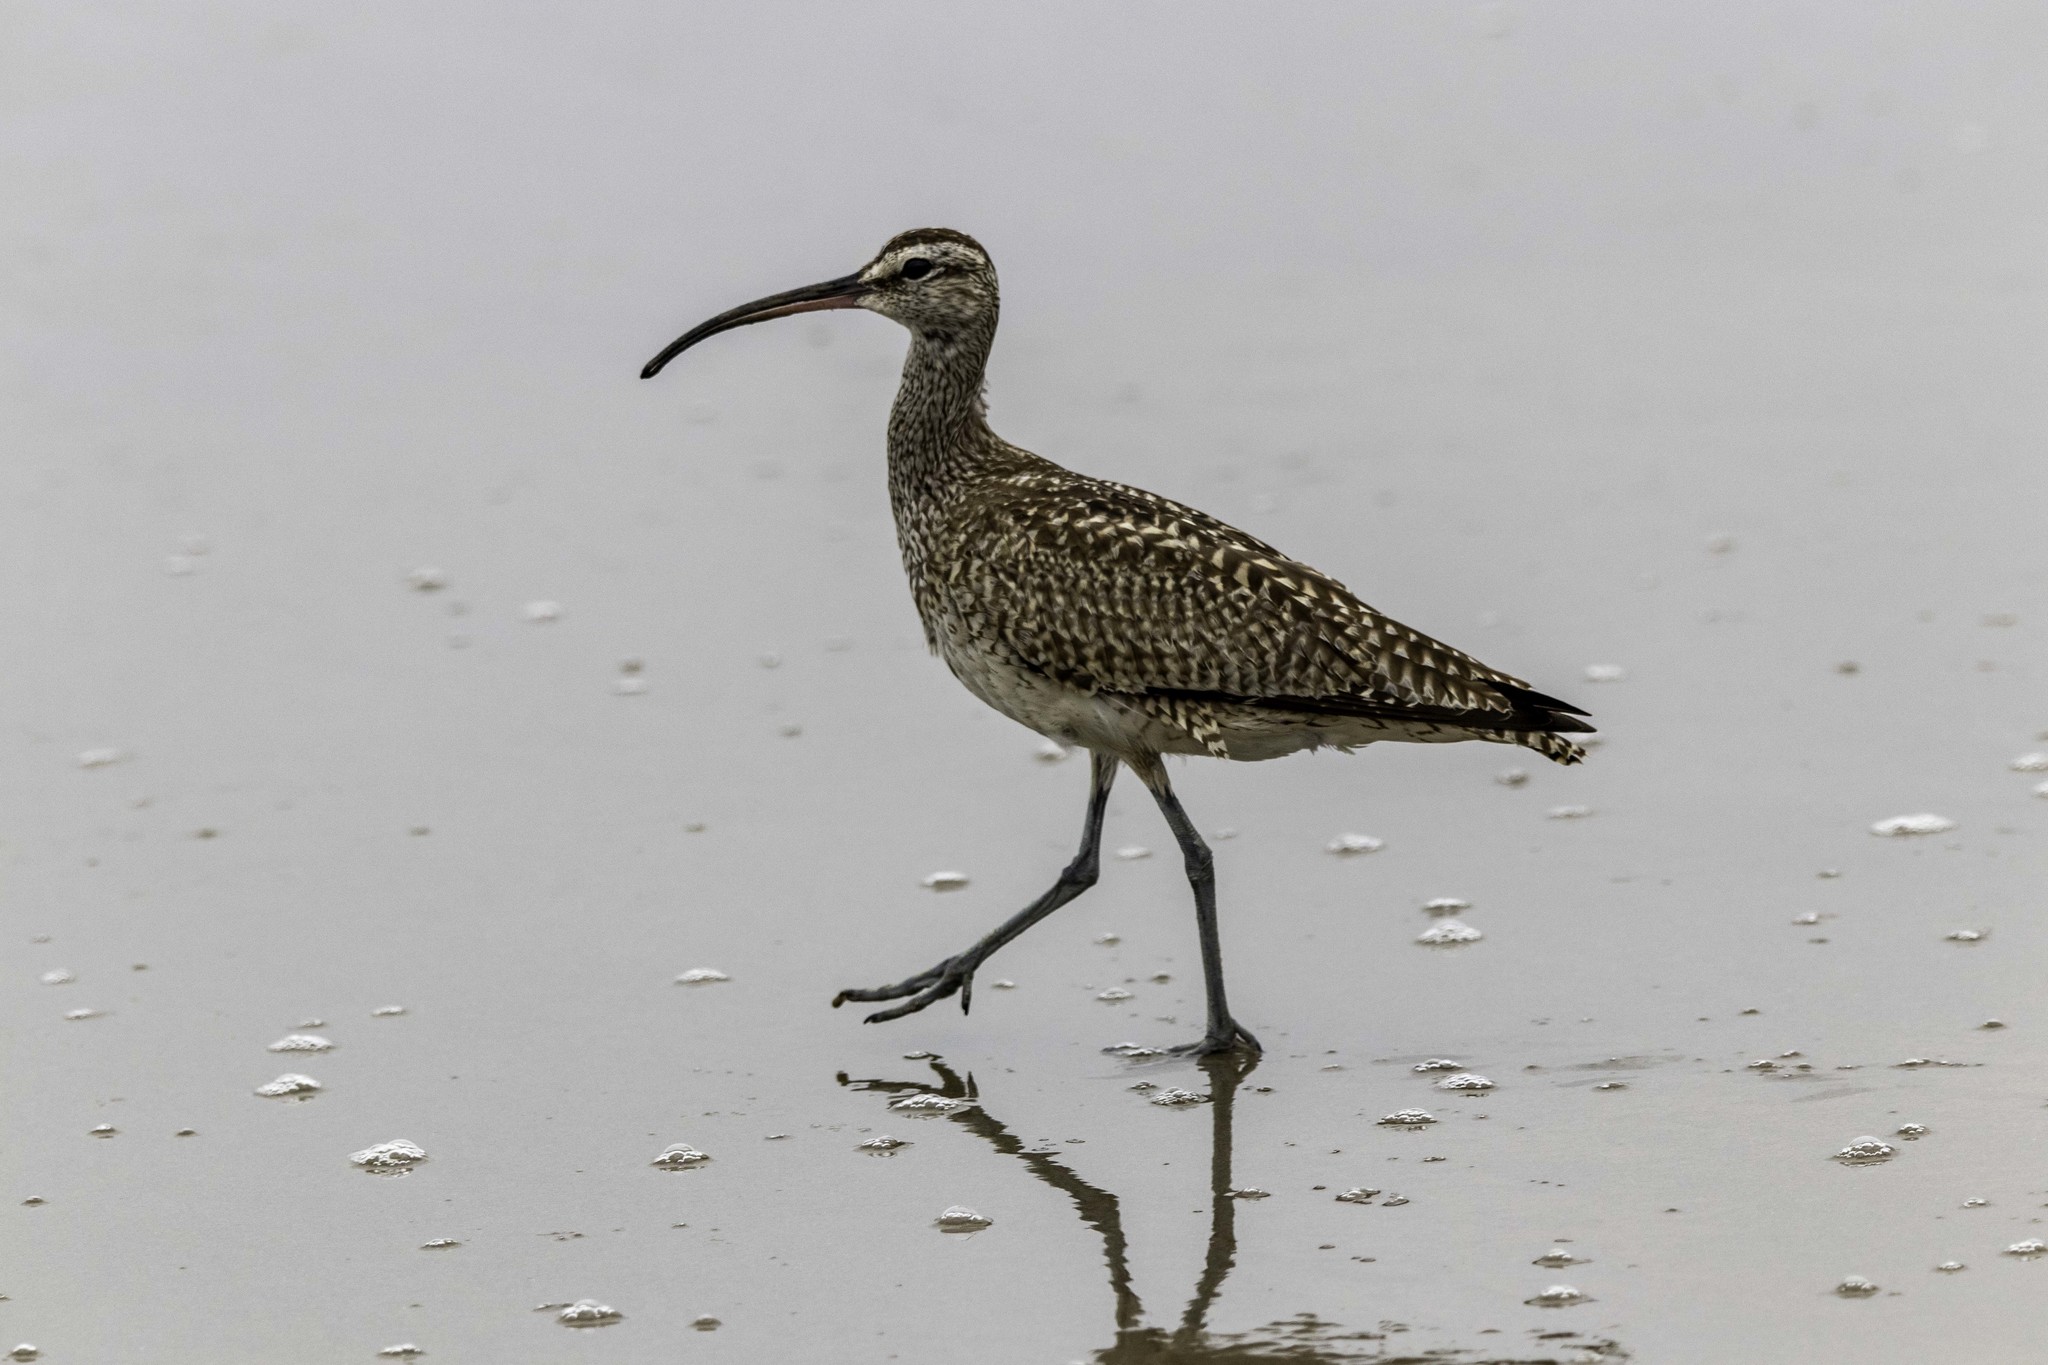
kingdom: Animalia
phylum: Chordata
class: Aves
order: Charadriiformes
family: Scolopacidae
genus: Numenius
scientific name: Numenius phaeopus
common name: Whimbrel
